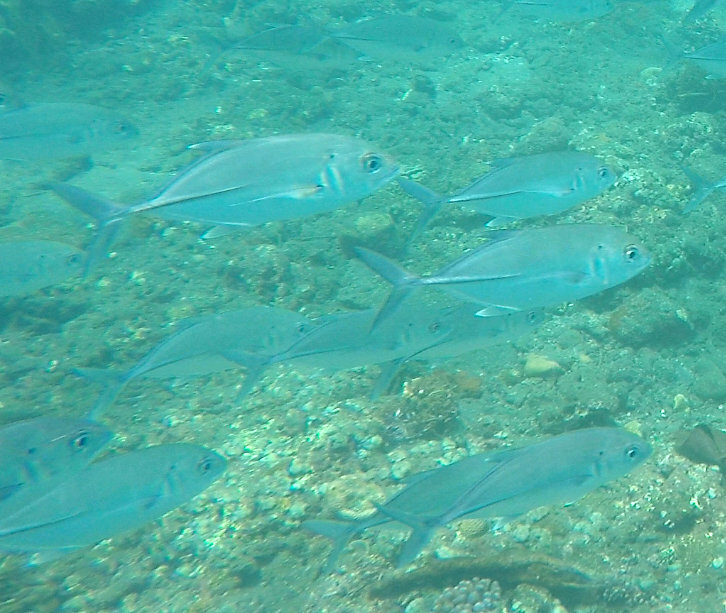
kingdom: Animalia
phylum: Chordata
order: Perciformes
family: Carangidae
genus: Caranx
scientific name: Caranx sexfasciatus
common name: Bigeye trevally
